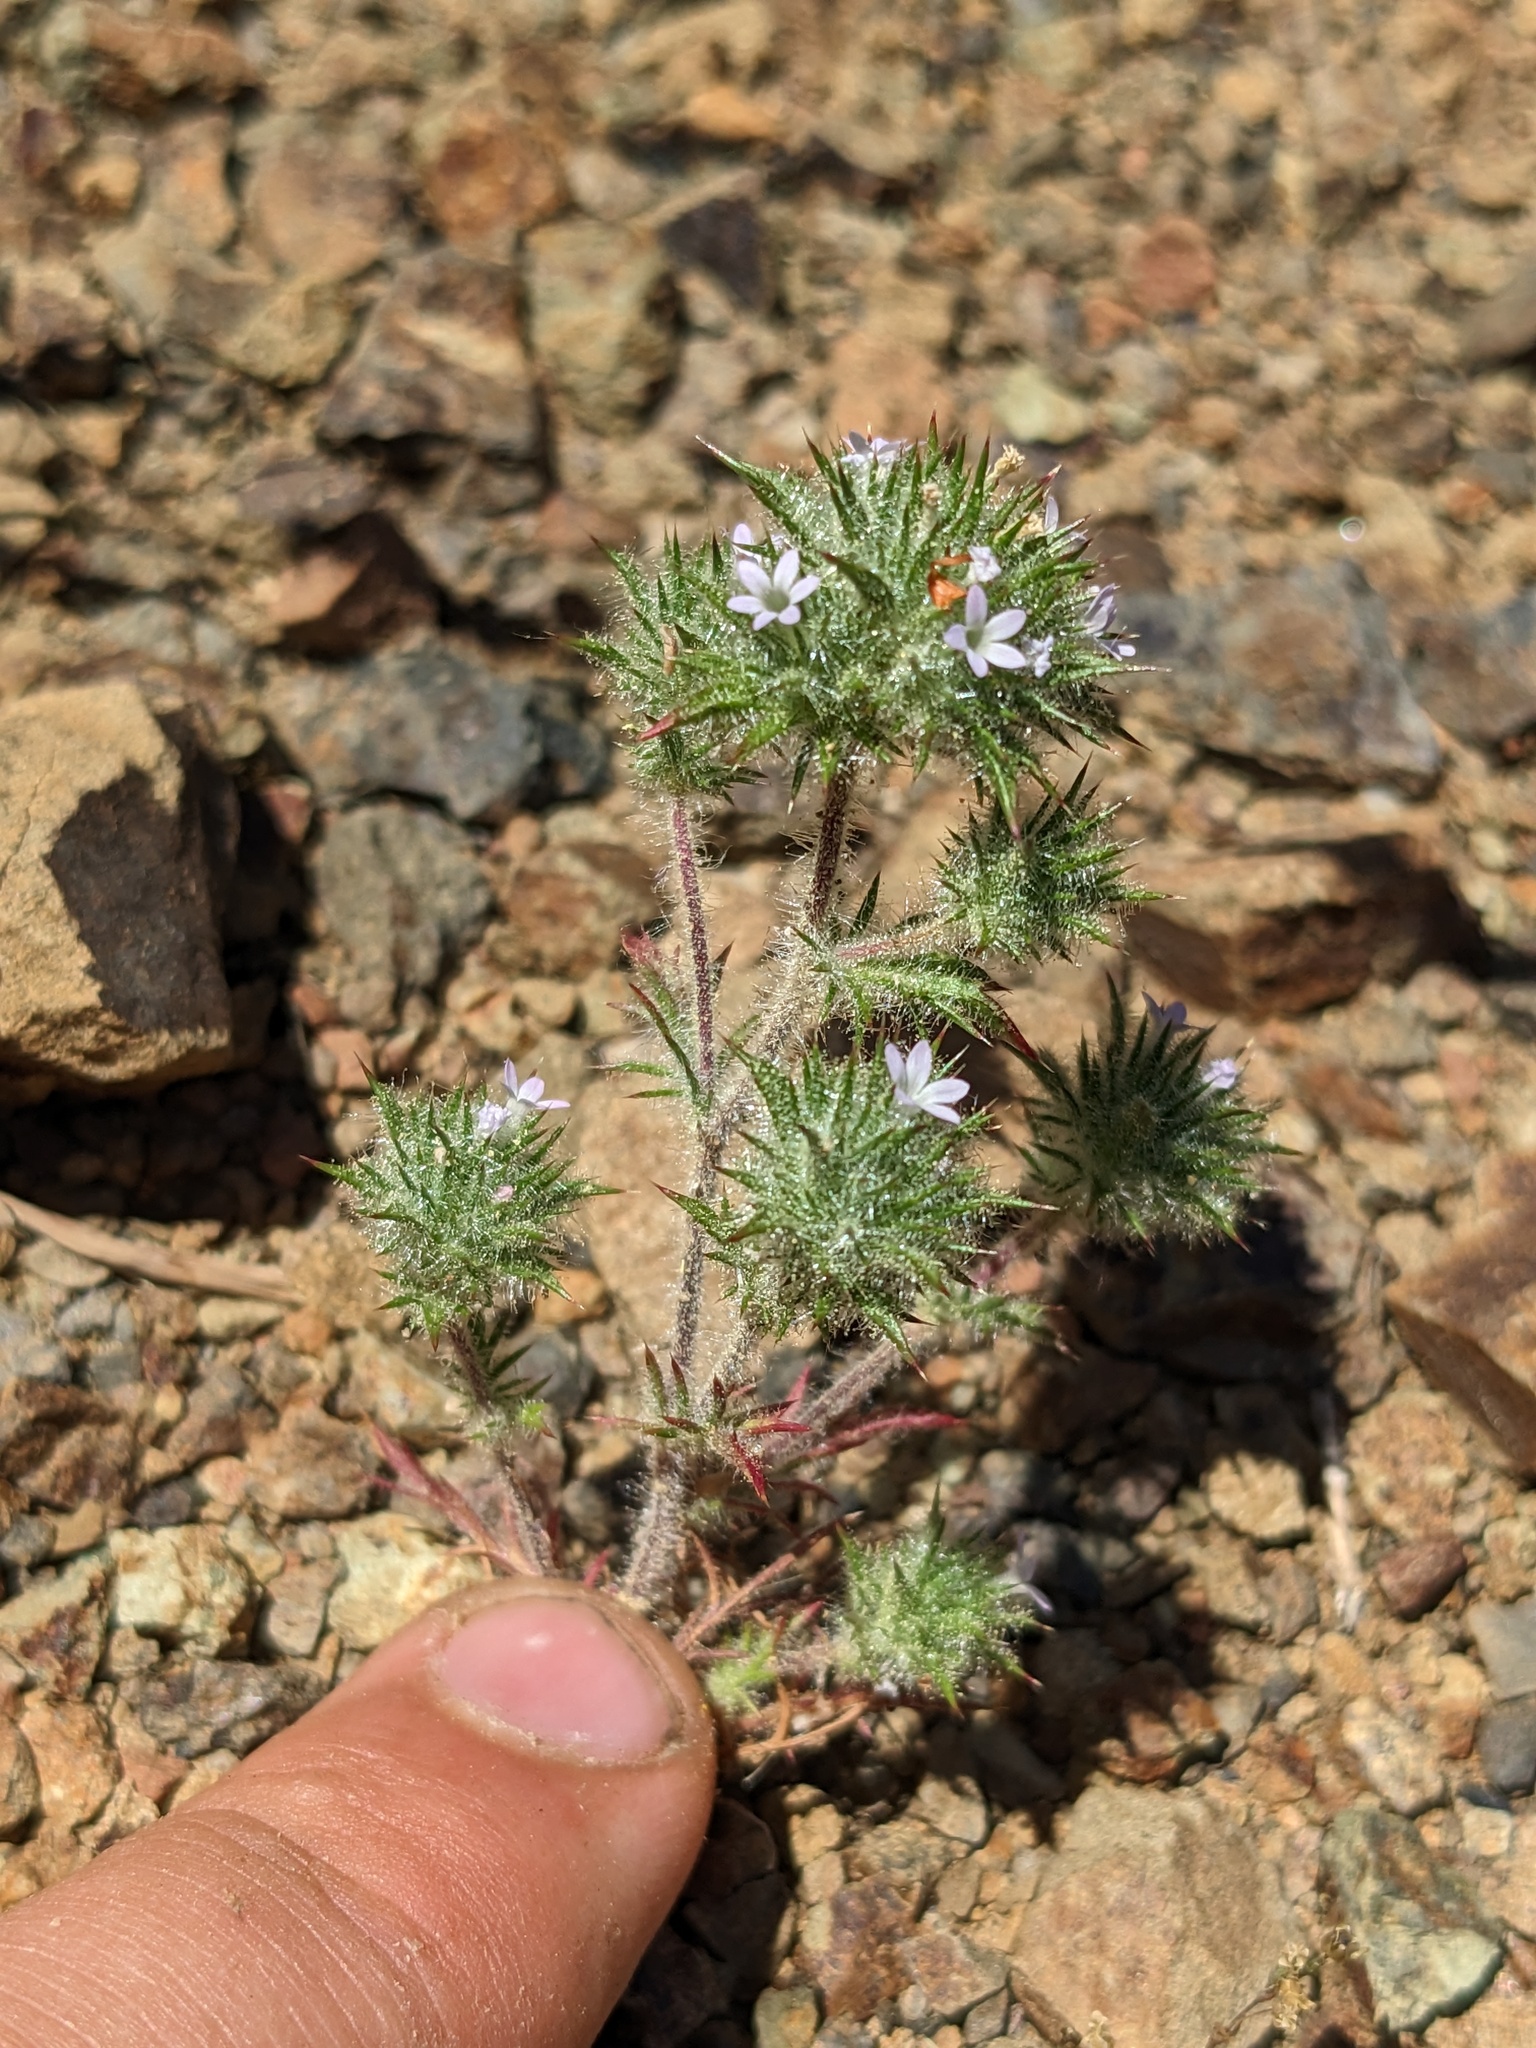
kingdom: Plantae
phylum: Tracheophyta
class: Magnoliopsida
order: Ericales
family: Polemoniaceae
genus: Navarretia
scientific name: Navarretia mellita
